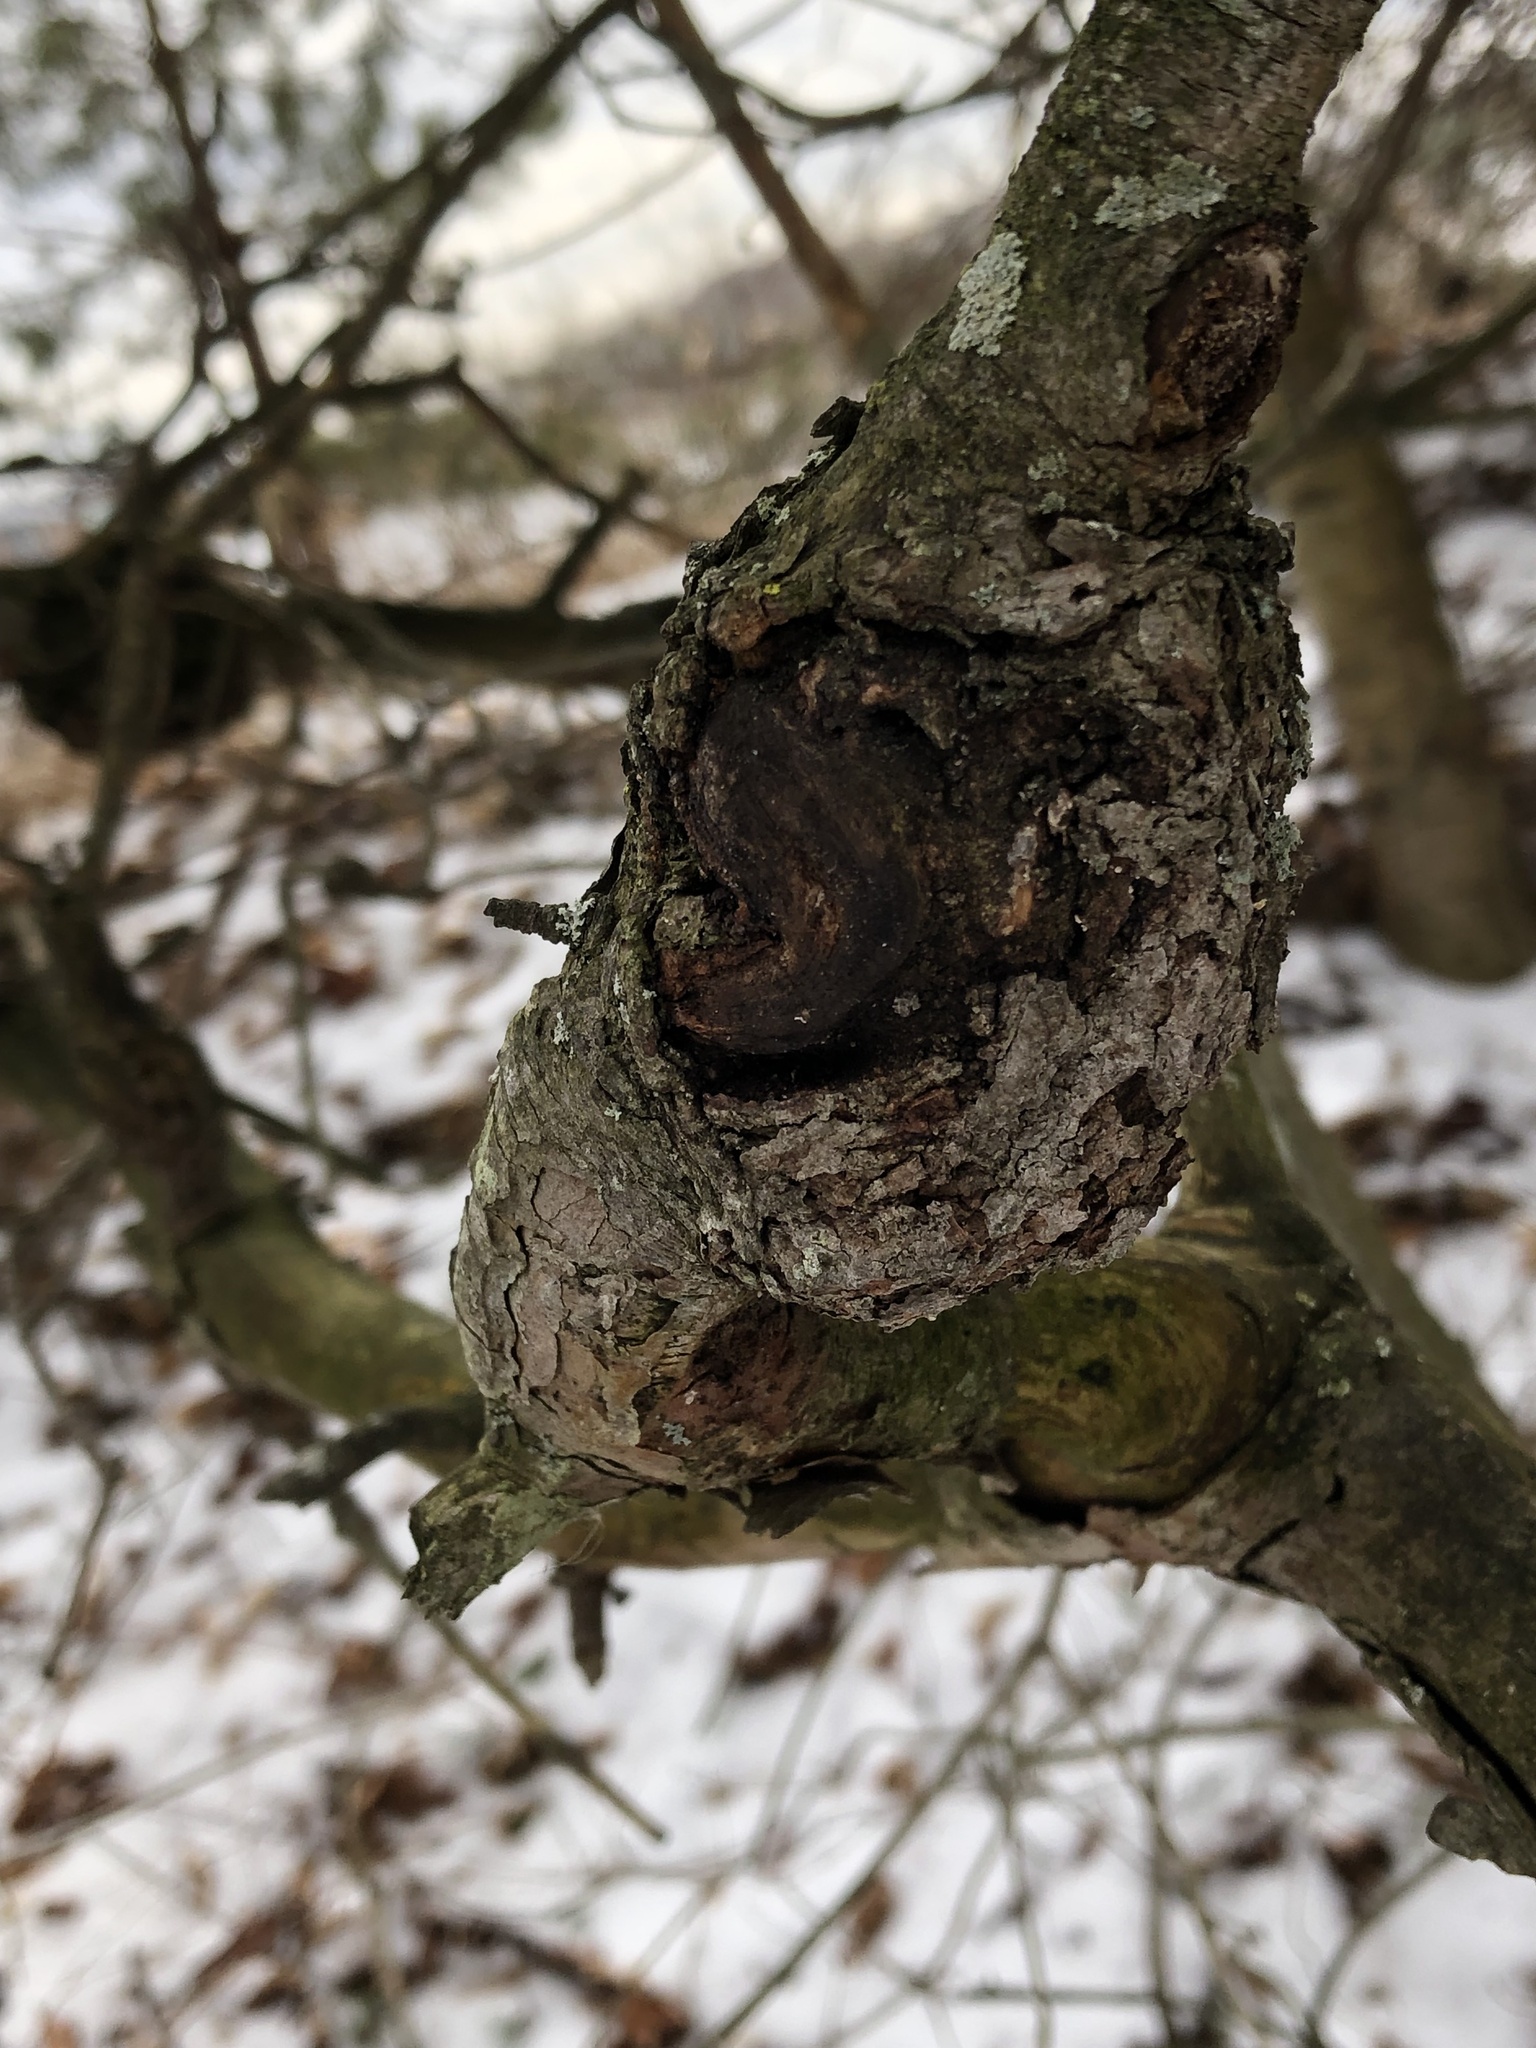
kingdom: Bacteria
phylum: Proteobacteria
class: Alphaproteobacteria
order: Rhizobiales
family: Rhizobiaceae
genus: Rhizobium
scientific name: Rhizobium Agrobacterium radiobacter
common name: Bacterial crown gall
